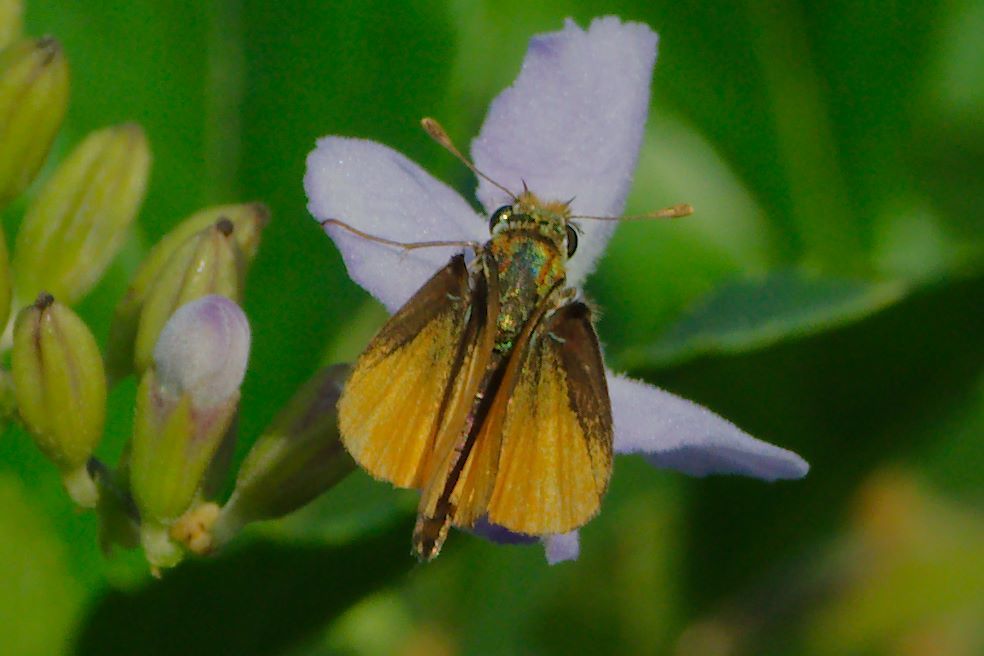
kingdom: Animalia
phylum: Arthropoda
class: Insecta
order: Lepidoptera
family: Hesperiidae
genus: Copaeodes
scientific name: Copaeodes minima
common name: Southern skipperling
